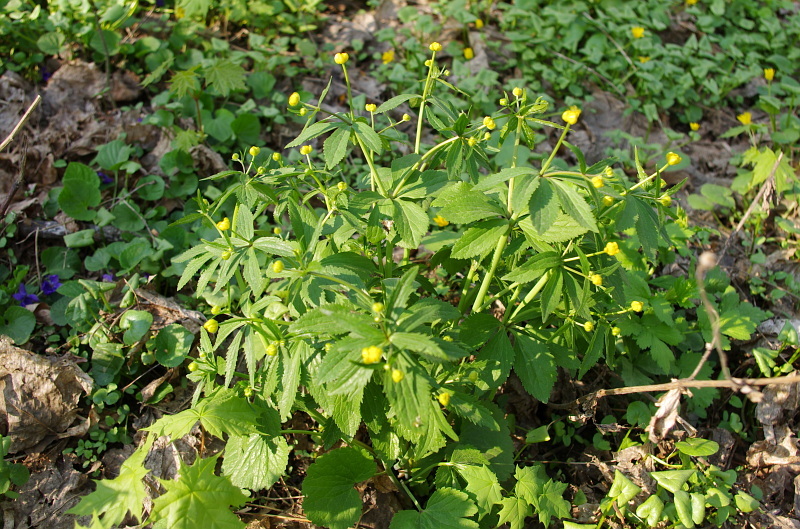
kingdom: Plantae
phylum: Tracheophyta
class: Magnoliopsida
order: Ranunculales
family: Ranunculaceae
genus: Ranunculus
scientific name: Ranunculus cassubicus
